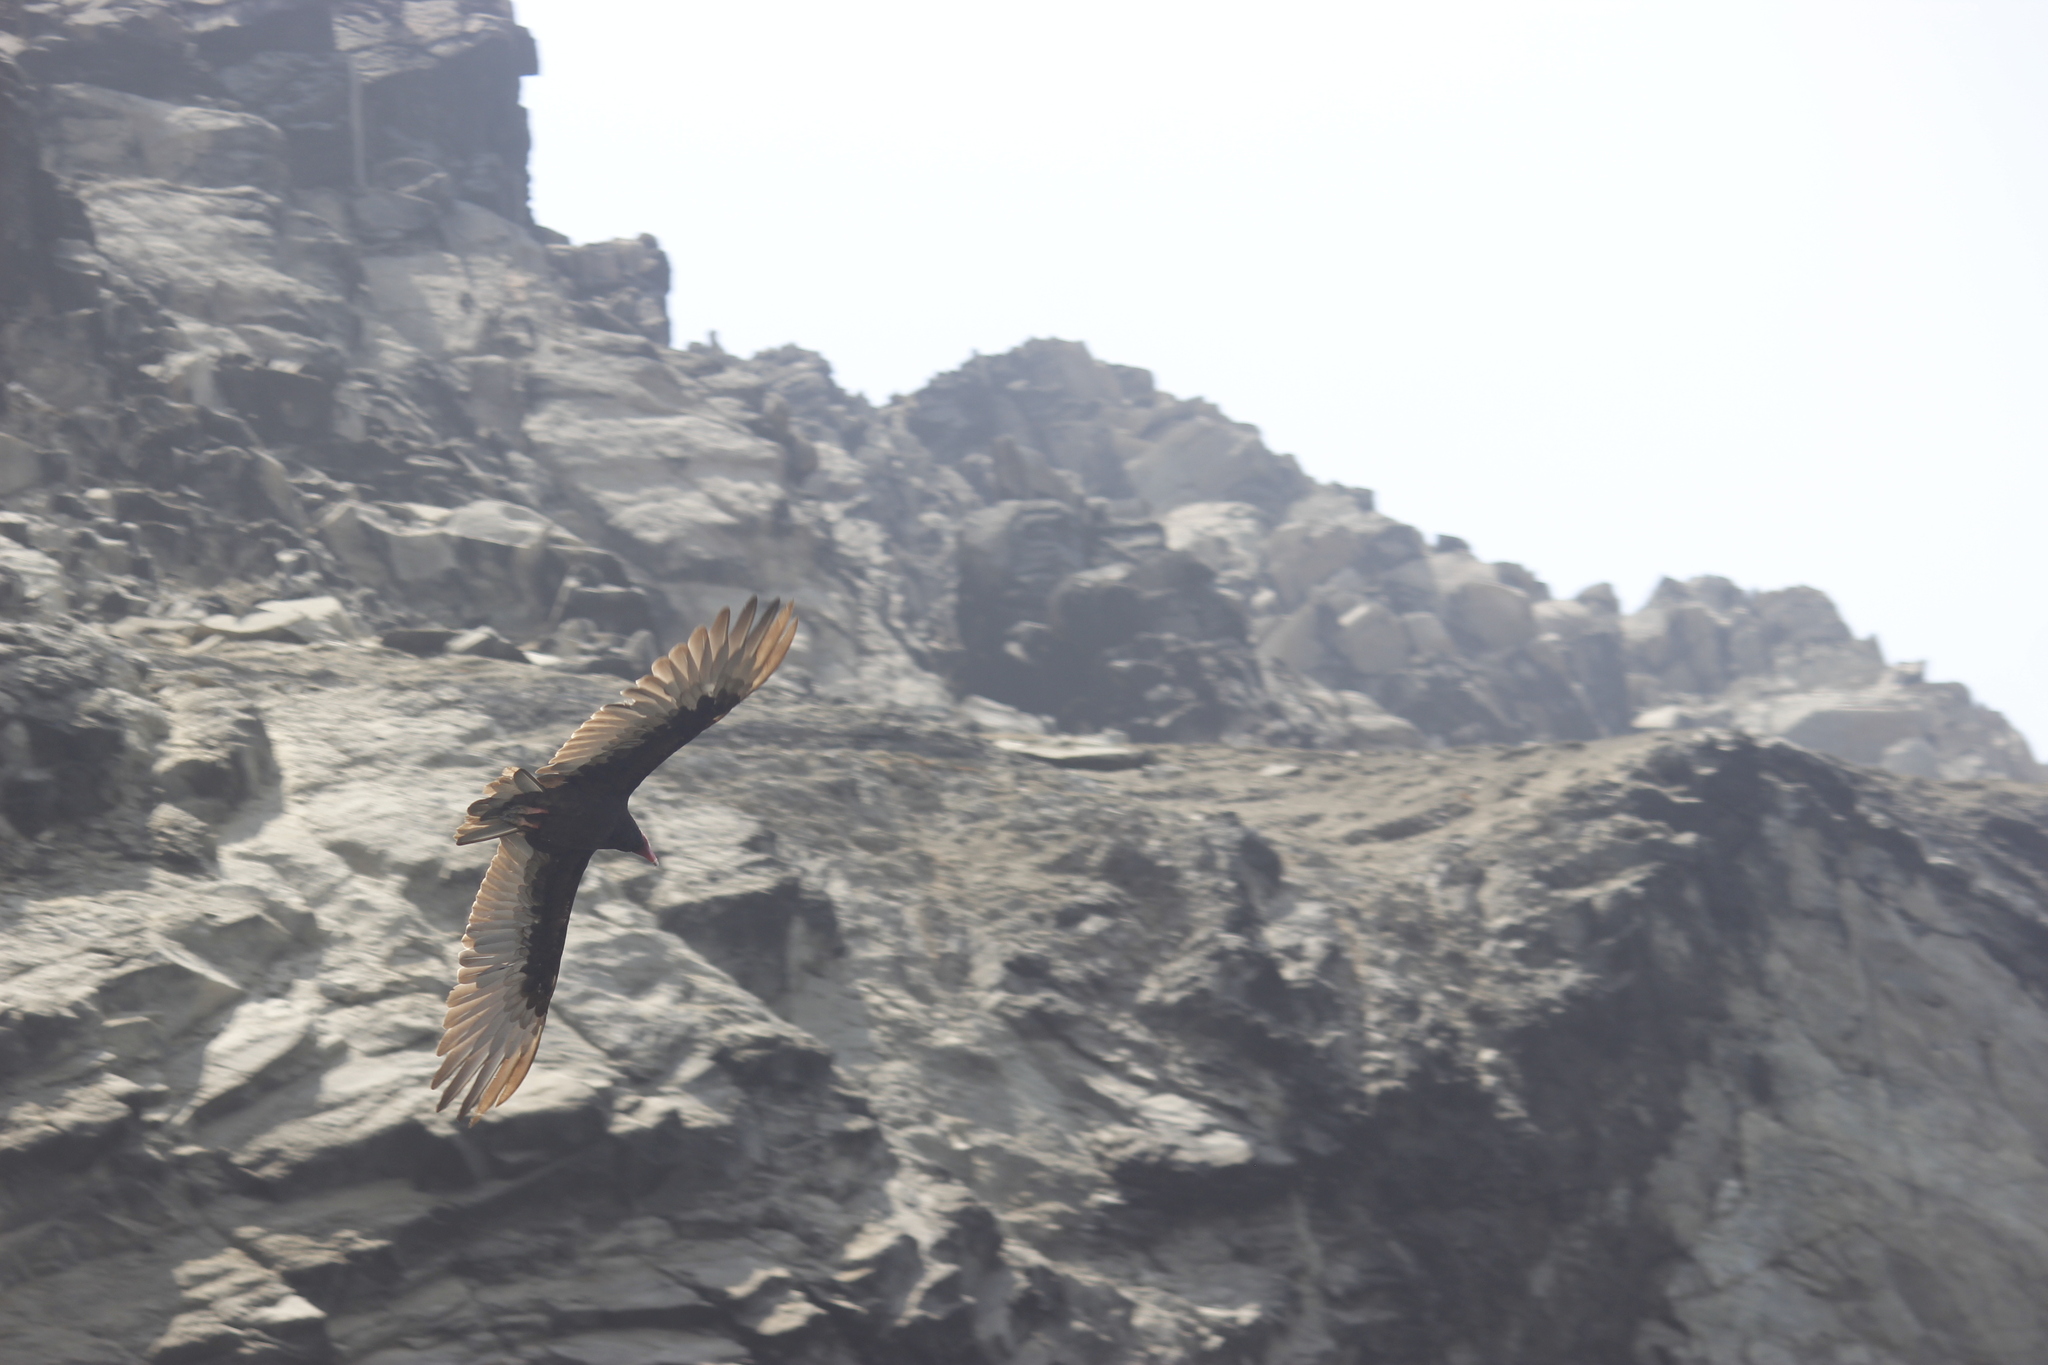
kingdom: Animalia
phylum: Chordata
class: Aves
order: Accipitriformes
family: Cathartidae
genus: Cathartes
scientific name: Cathartes aura
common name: Turkey vulture
